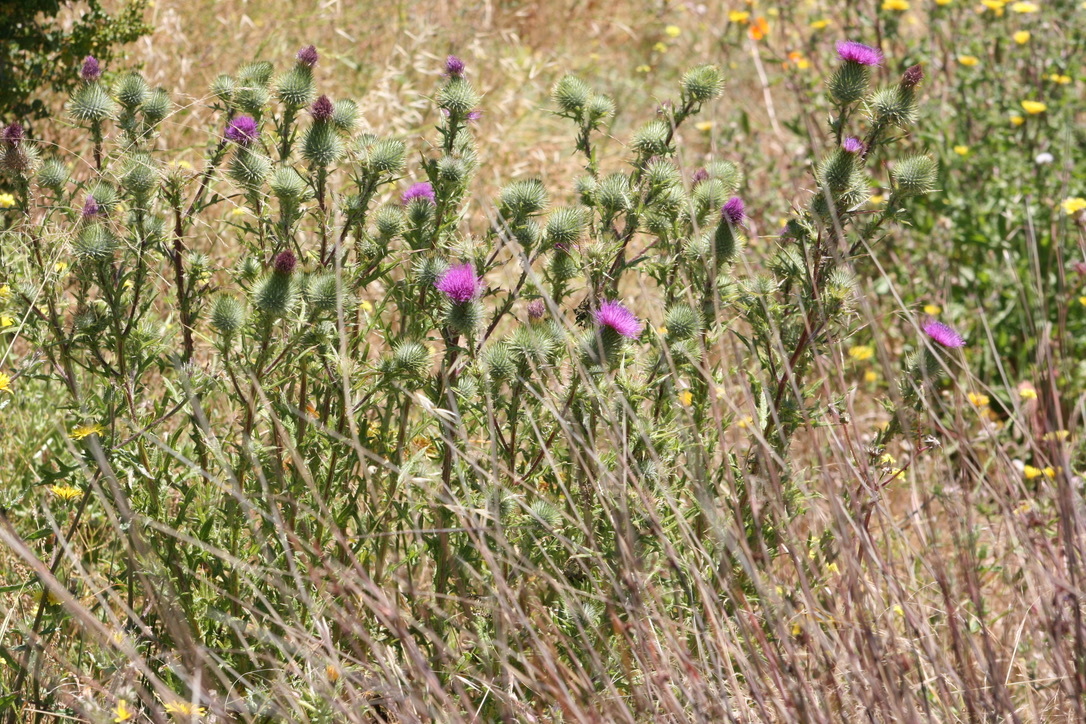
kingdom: Plantae
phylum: Tracheophyta
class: Magnoliopsida
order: Asterales
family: Asteraceae
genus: Cirsium
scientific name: Cirsium vulgare
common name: Bull thistle
